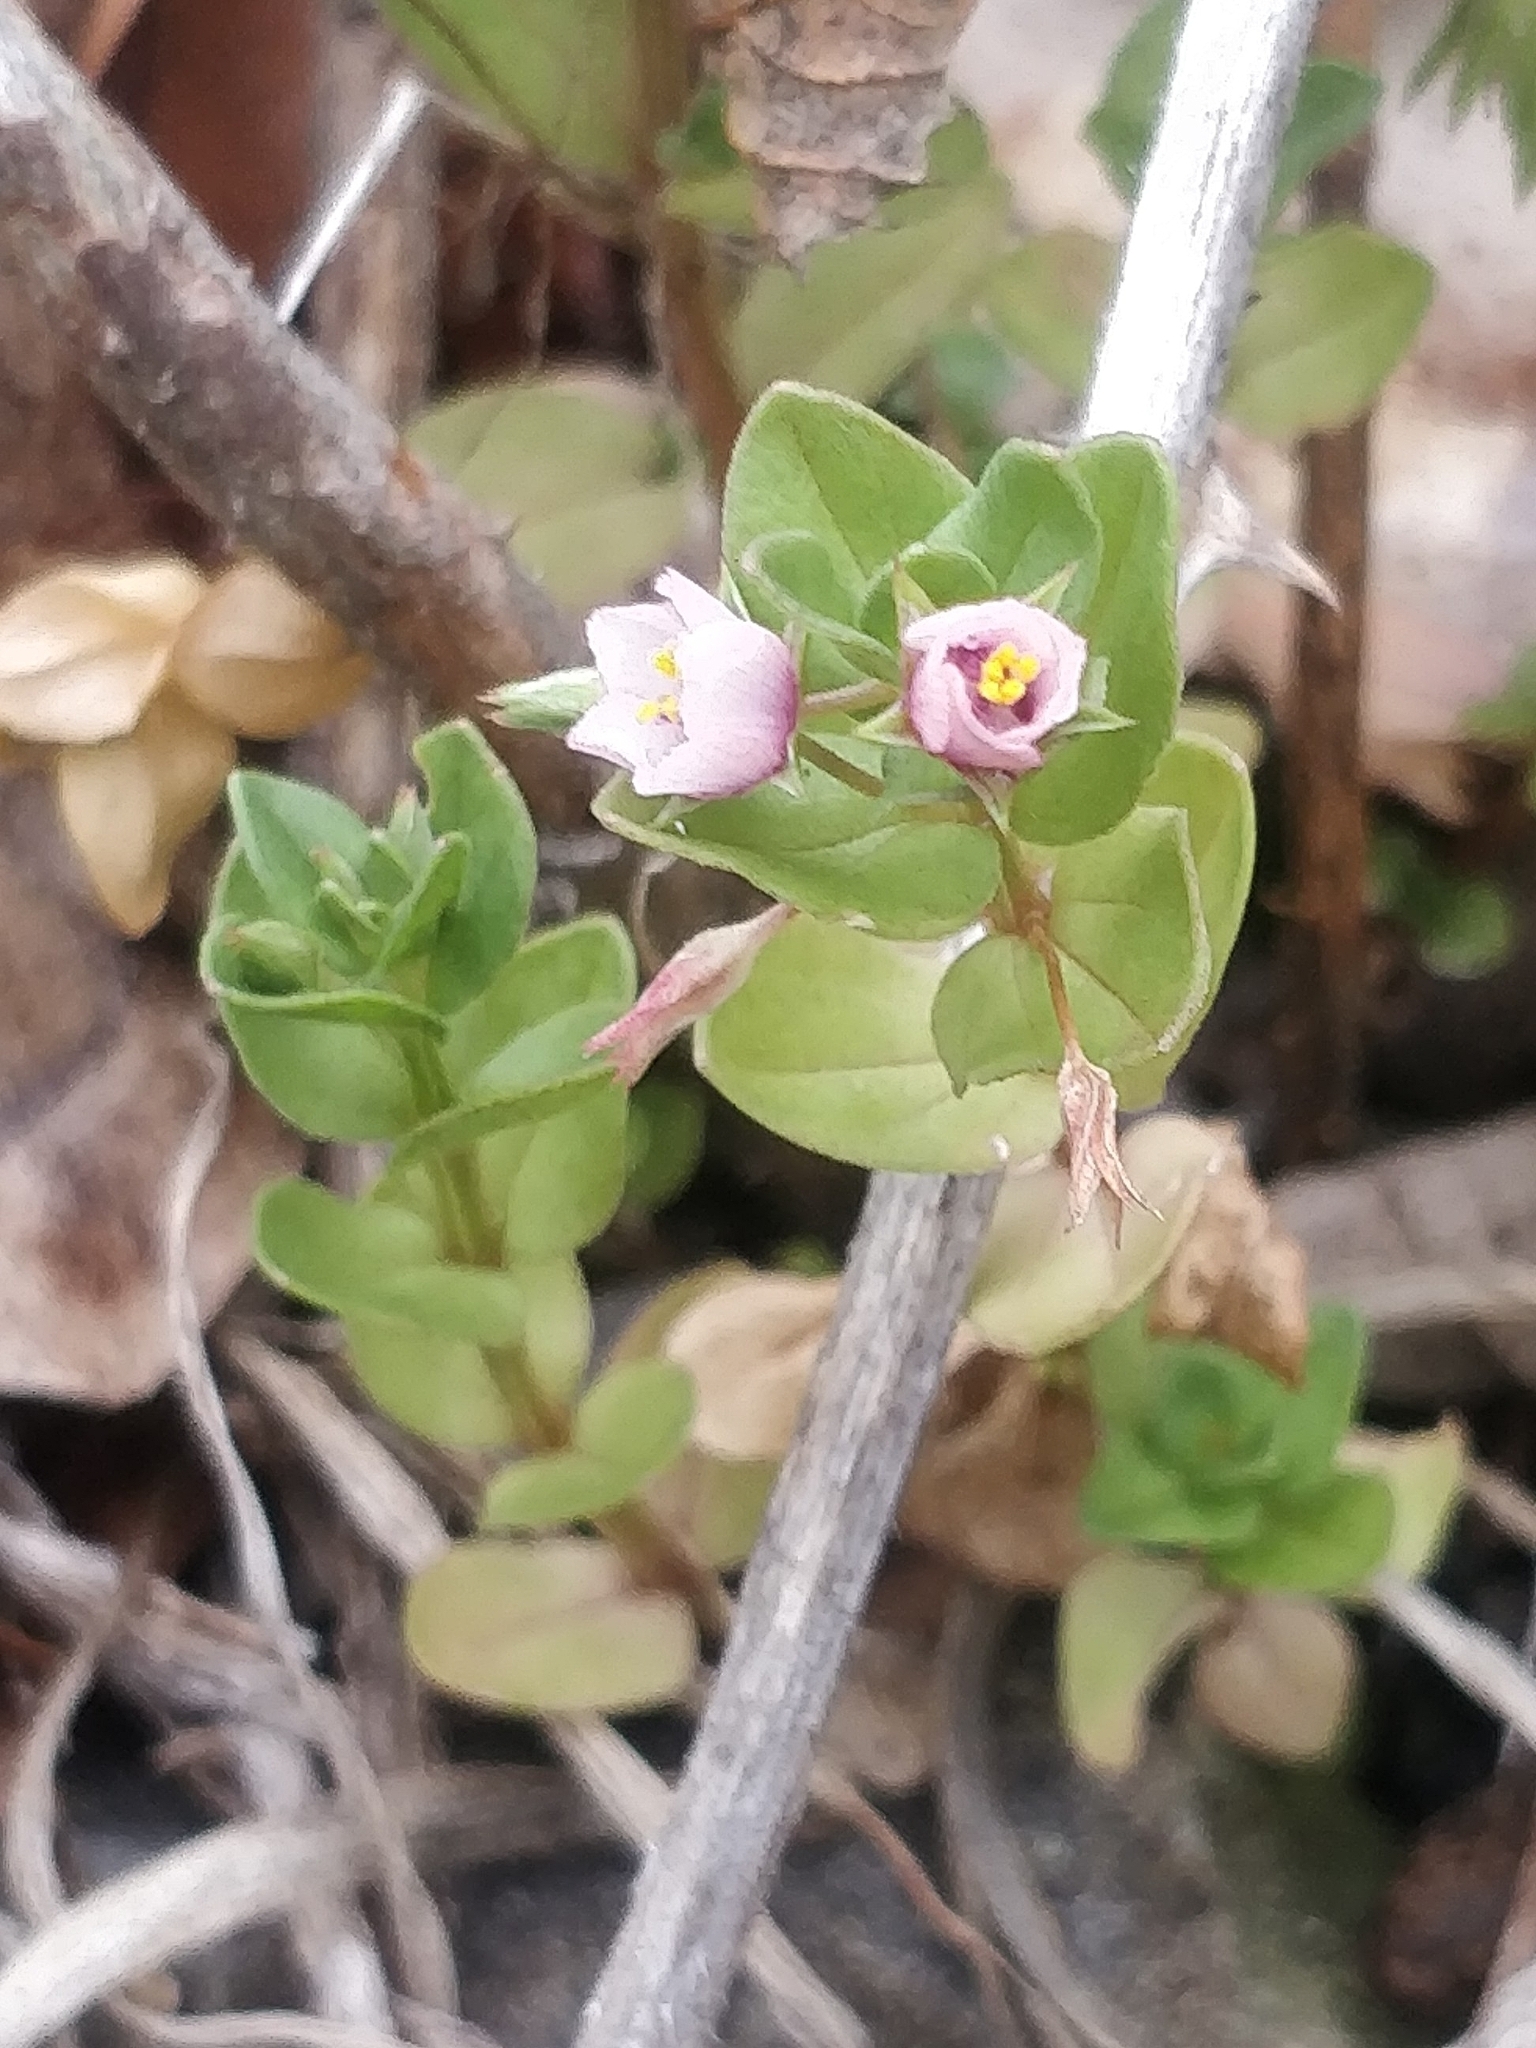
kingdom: Plantae
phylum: Tracheophyta
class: Magnoliopsida
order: Ericales
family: Primulaceae
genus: Lysimachia
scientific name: Lysimachia
